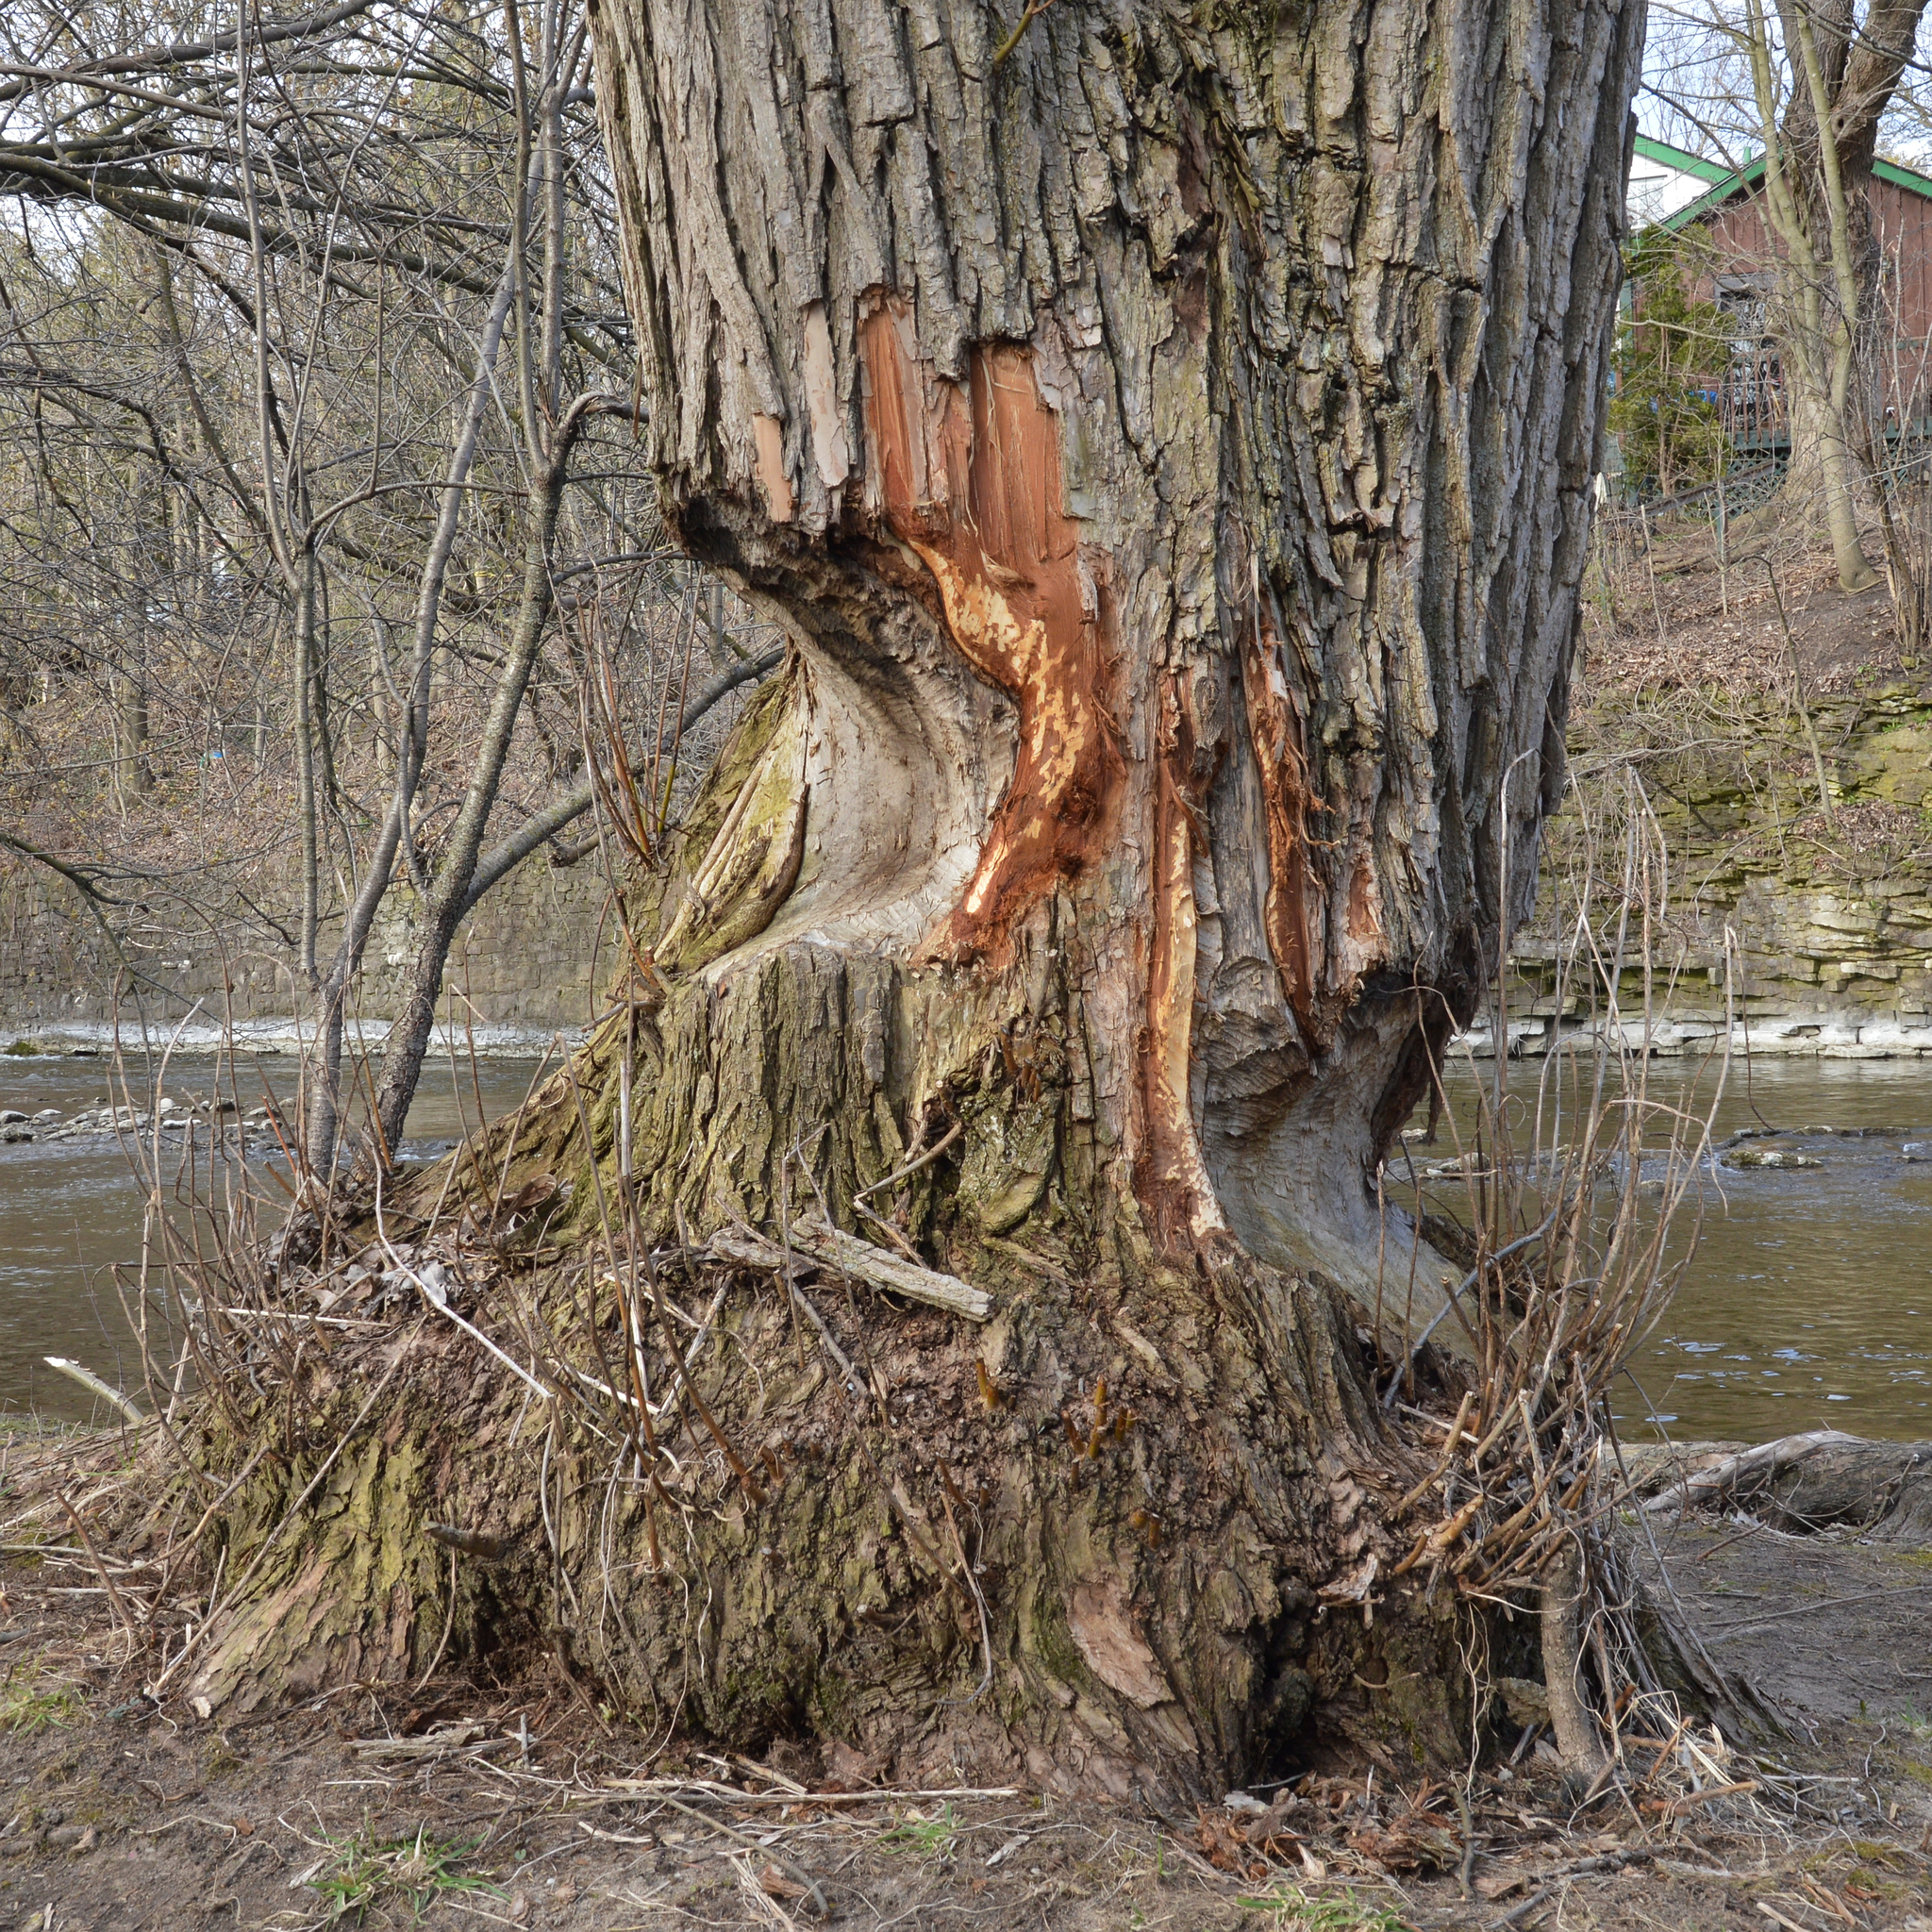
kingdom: Animalia
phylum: Chordata
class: Mammalia
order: Rodentia
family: Castoridae
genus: Castor
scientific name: Castor canadensis
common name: American beaver
